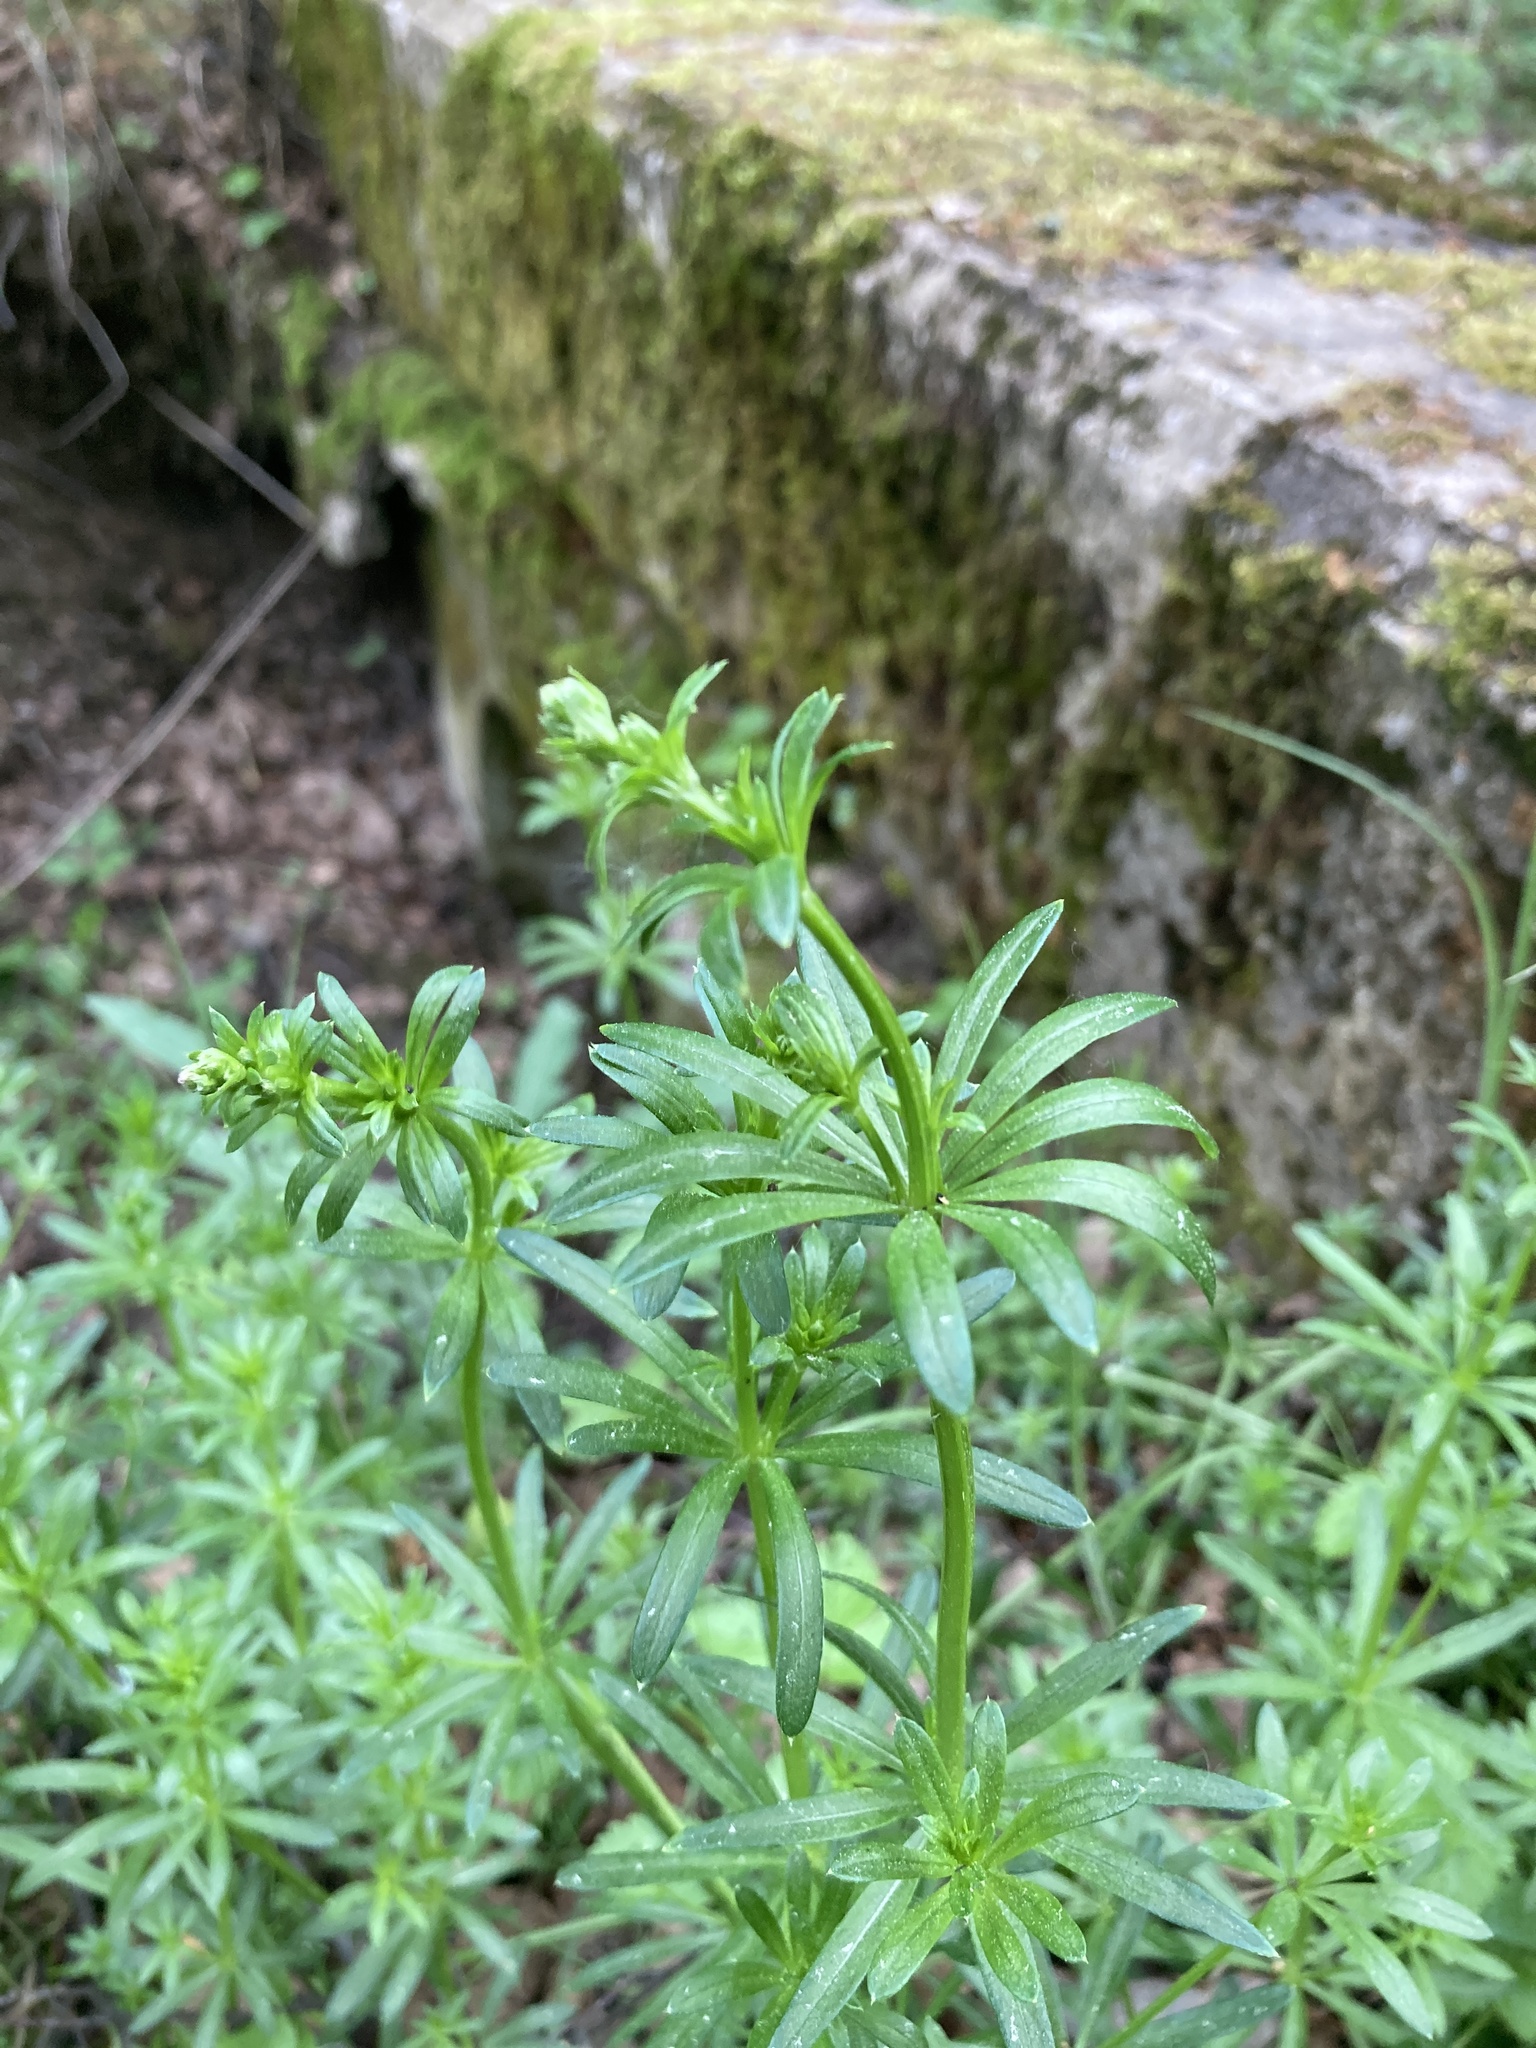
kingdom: Plantae
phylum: Tracheophyta
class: Magnoliopsida
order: Gentianales
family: Rubiaceae
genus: Galium
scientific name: Galium mollugo
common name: Hedge bedstraw
